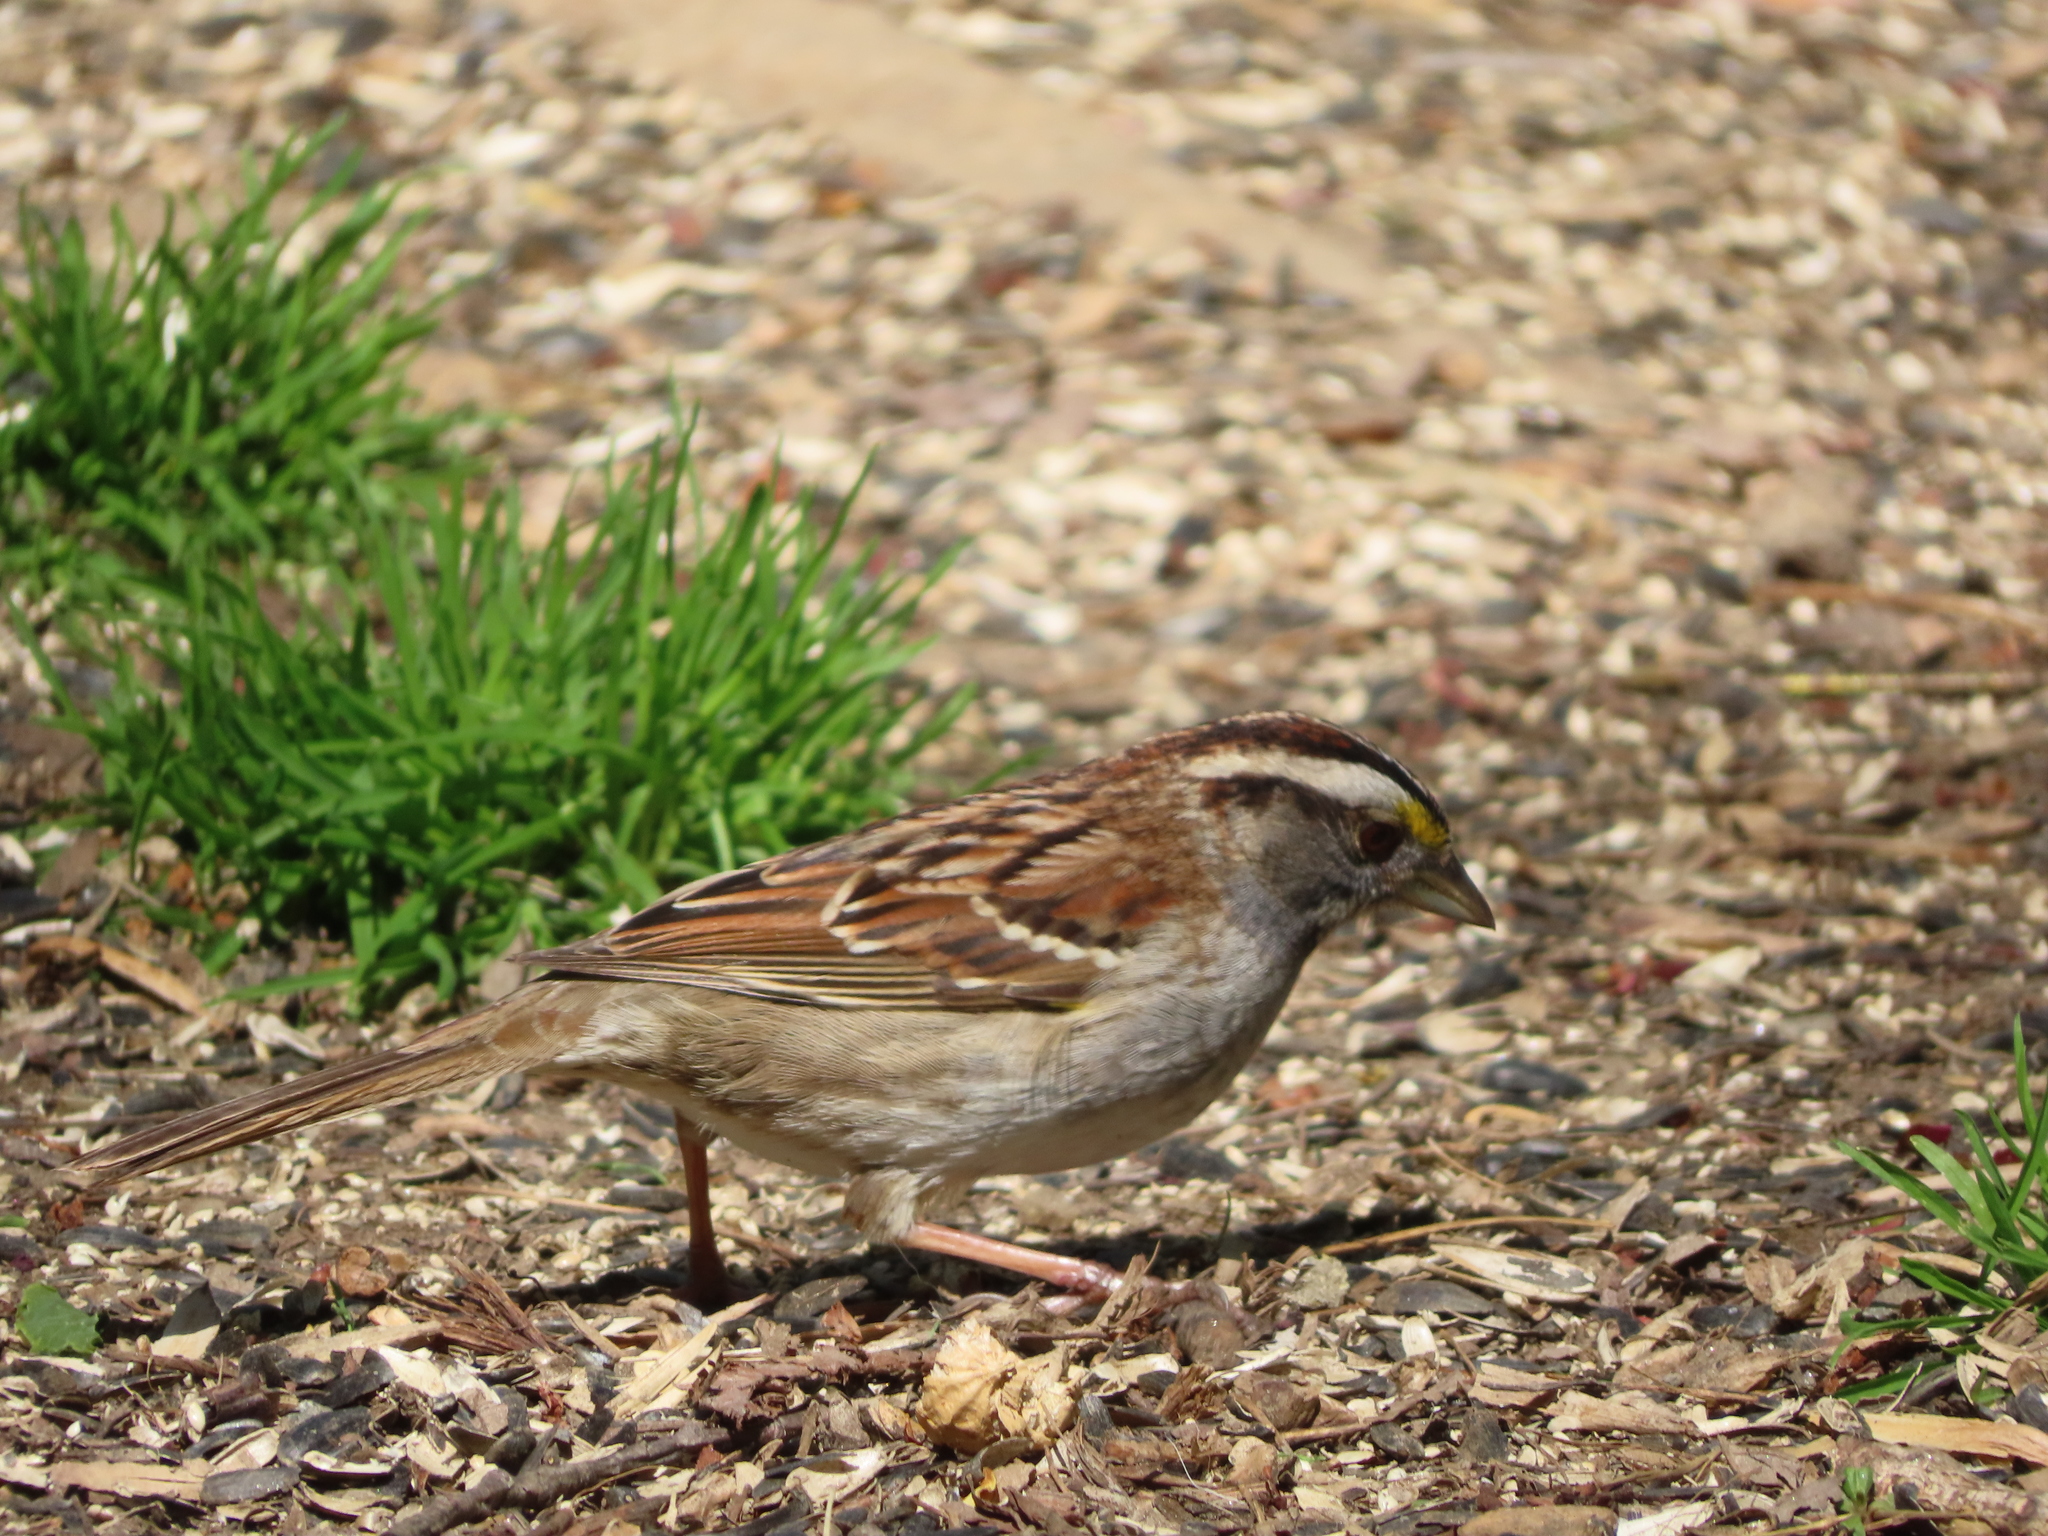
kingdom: Animalia
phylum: Chordata
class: Aves
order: Passeriformes
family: Passerellidae
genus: Zonotrichia
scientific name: Zonotrichia albicollis
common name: White-throated sparrow
